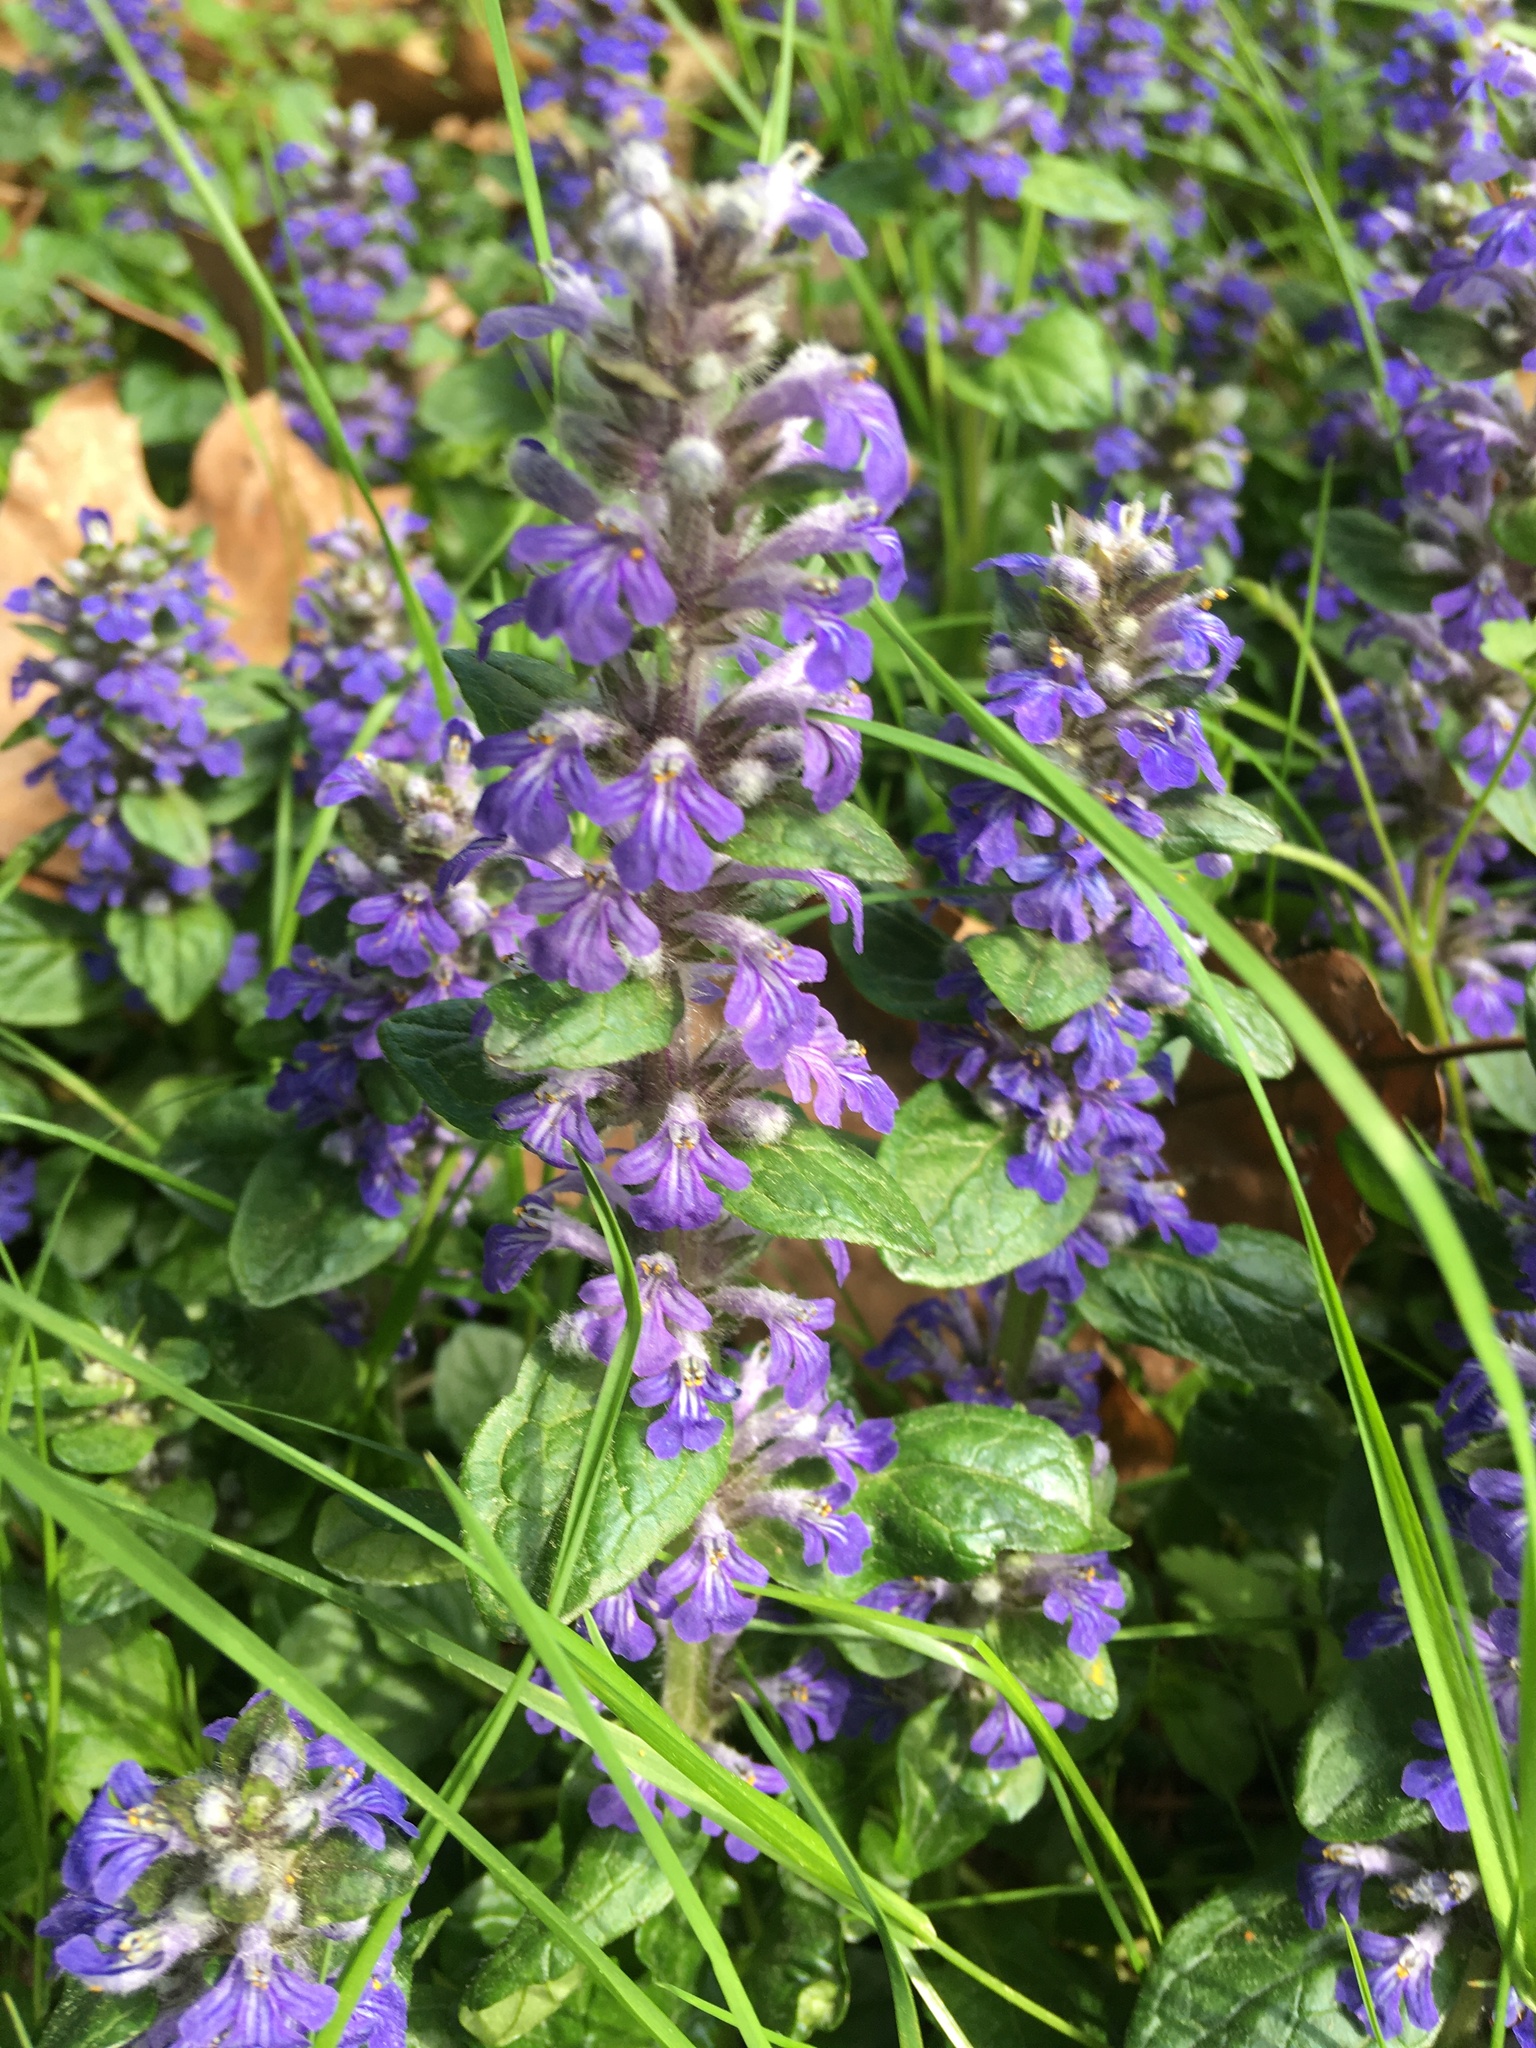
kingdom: Plantae
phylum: Tracheophyta
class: Magnoliopsida
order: Lamiales
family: Lamiaceae
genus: Ajuga
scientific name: Ajuga reptans
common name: Bugle
